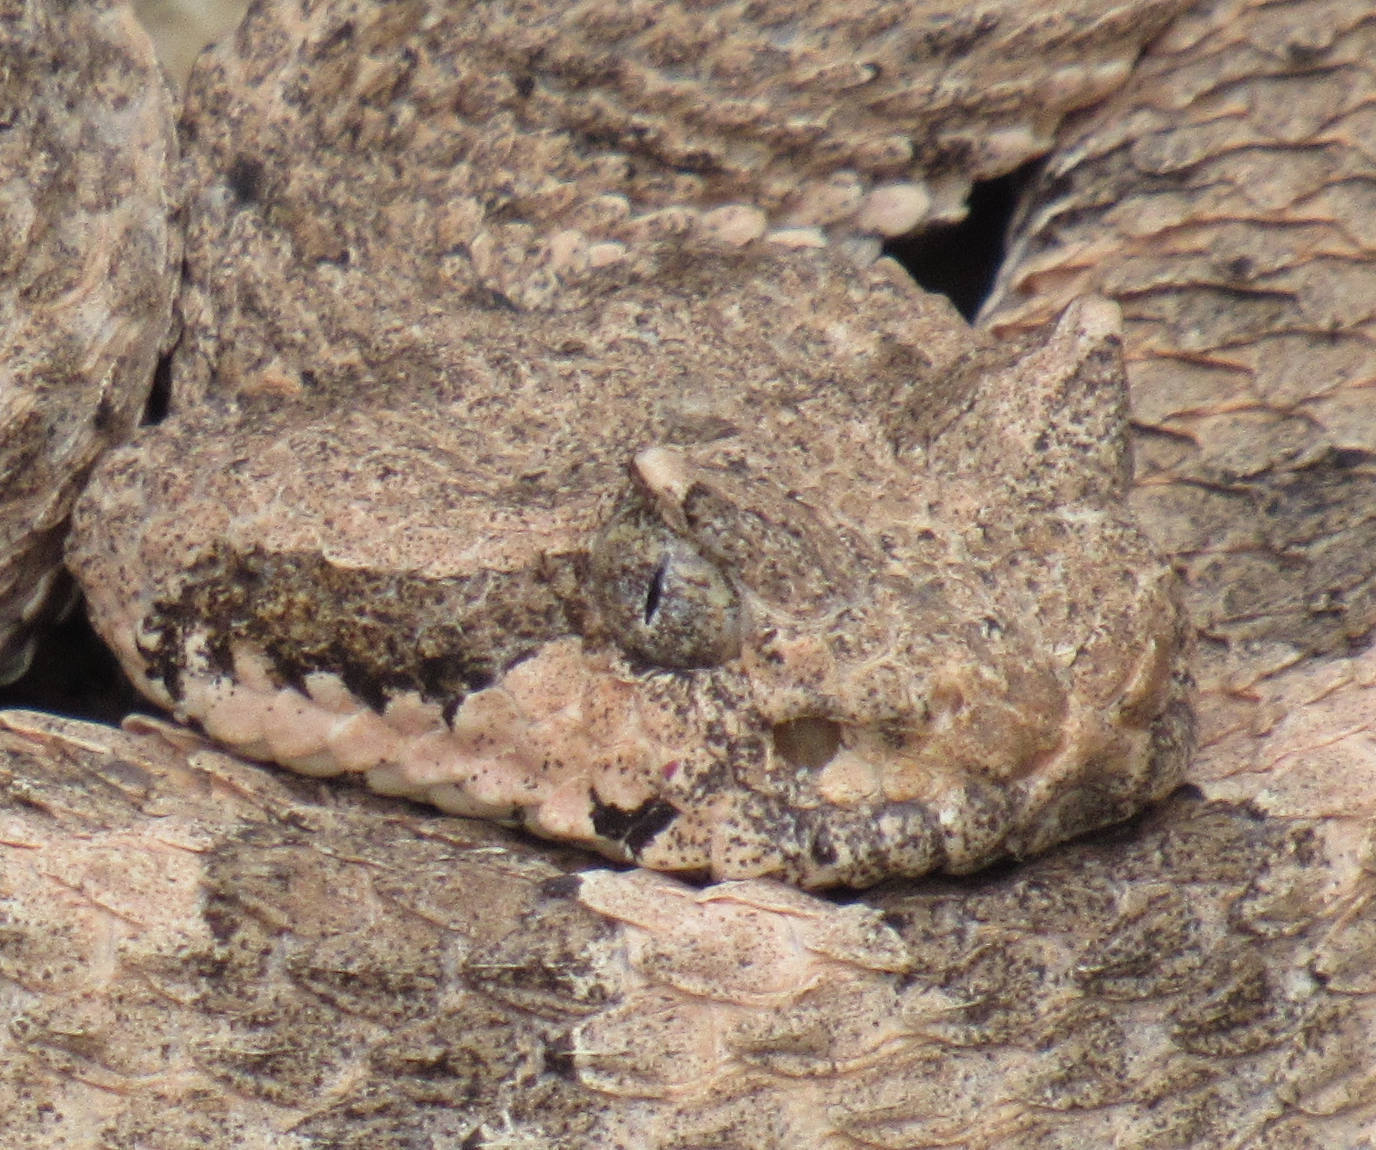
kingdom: Animalia
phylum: Chordata
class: Squamata
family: Viperidae
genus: Crotalus
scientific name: Crotalus cerastes
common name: Sidewinder
